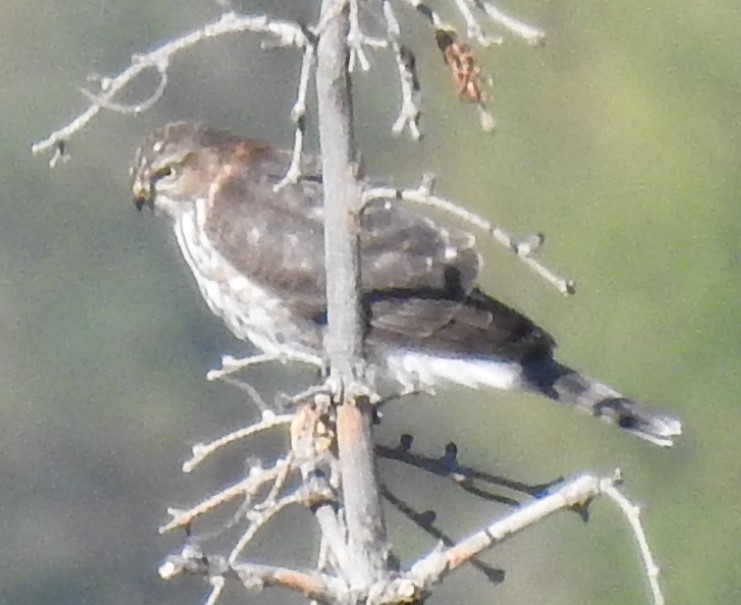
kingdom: Animalia
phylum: Chordata
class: Aves
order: Accipitriformes
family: Accipitridae
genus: Accipiter
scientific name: Accipiter striatus
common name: Sharp-shinned hawk
